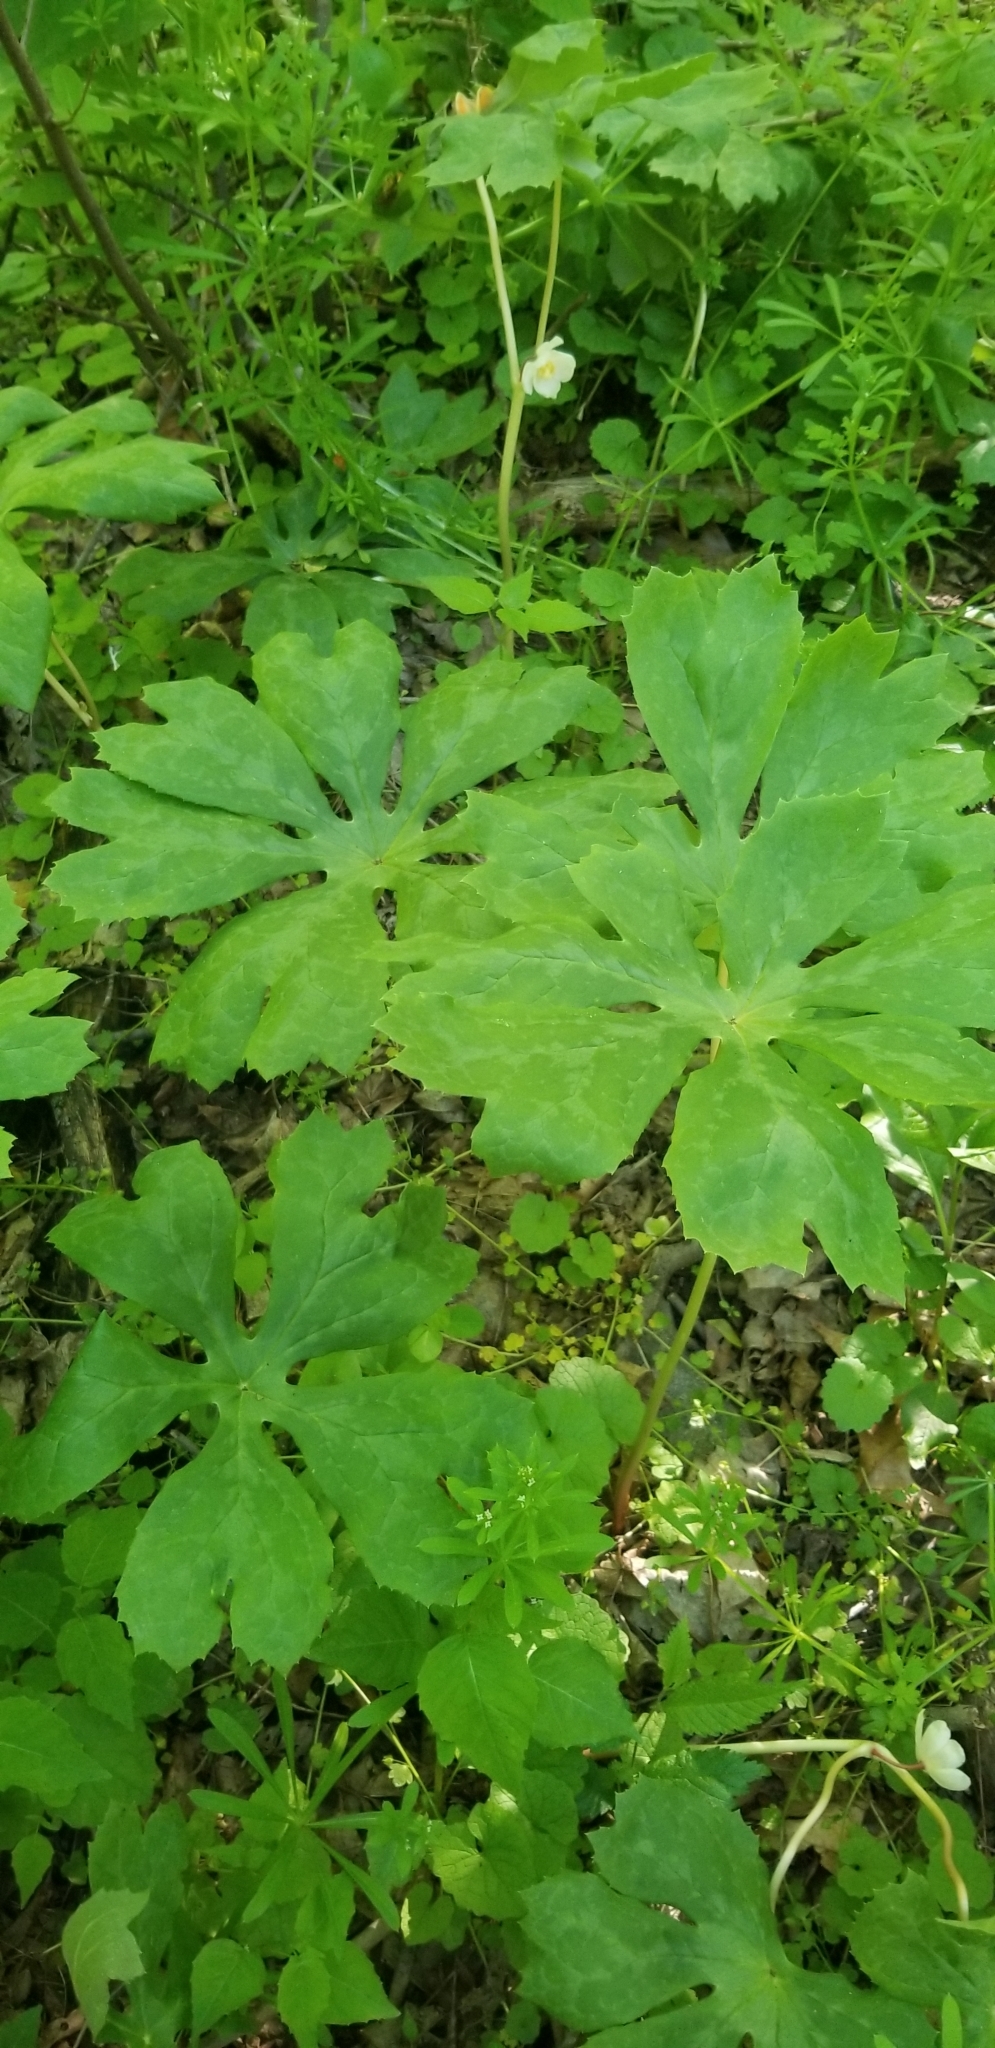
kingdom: Plantae
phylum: Tracheophyta
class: Magnoliopsida
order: Ranunculales
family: Berberidaceae
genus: Podophyllum
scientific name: Podophyllum peltatum
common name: Wild mandrake
